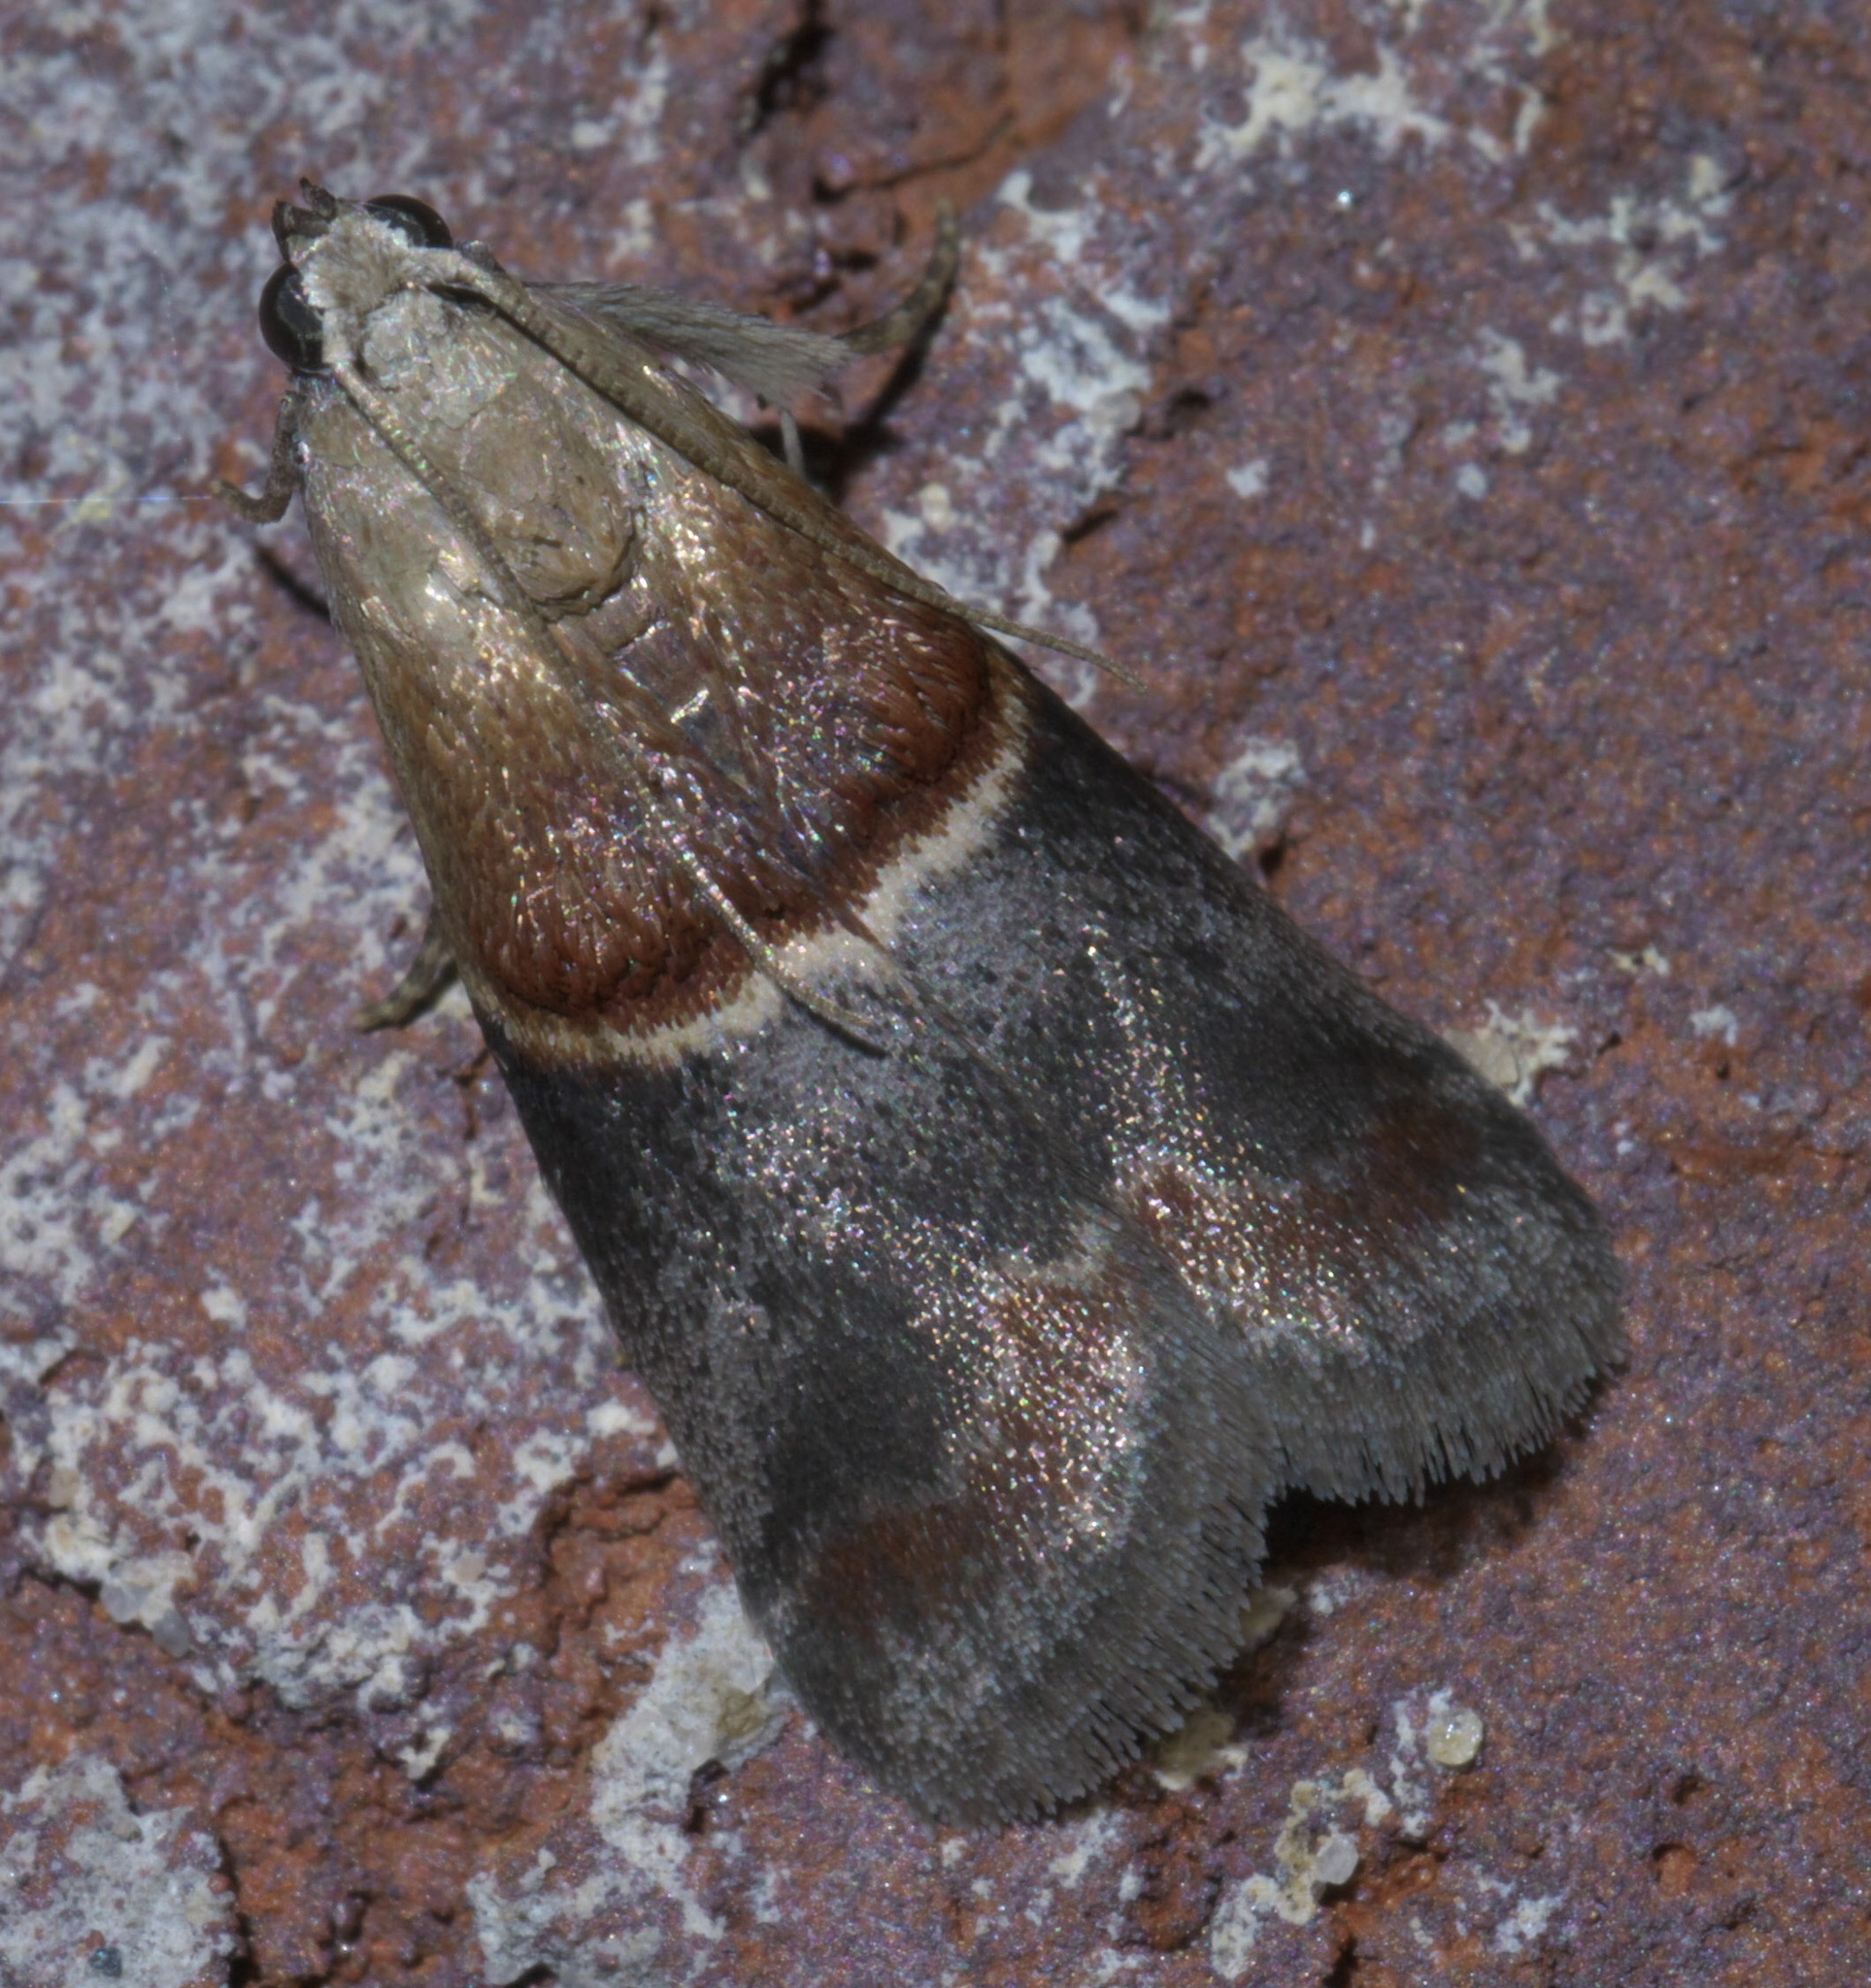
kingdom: Animalia
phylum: Arthropoda
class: Insecta
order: Lepidoptera
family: Pyralidae
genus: Acrobasis
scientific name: Acrobasis demotella
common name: Walnut shoot moth
